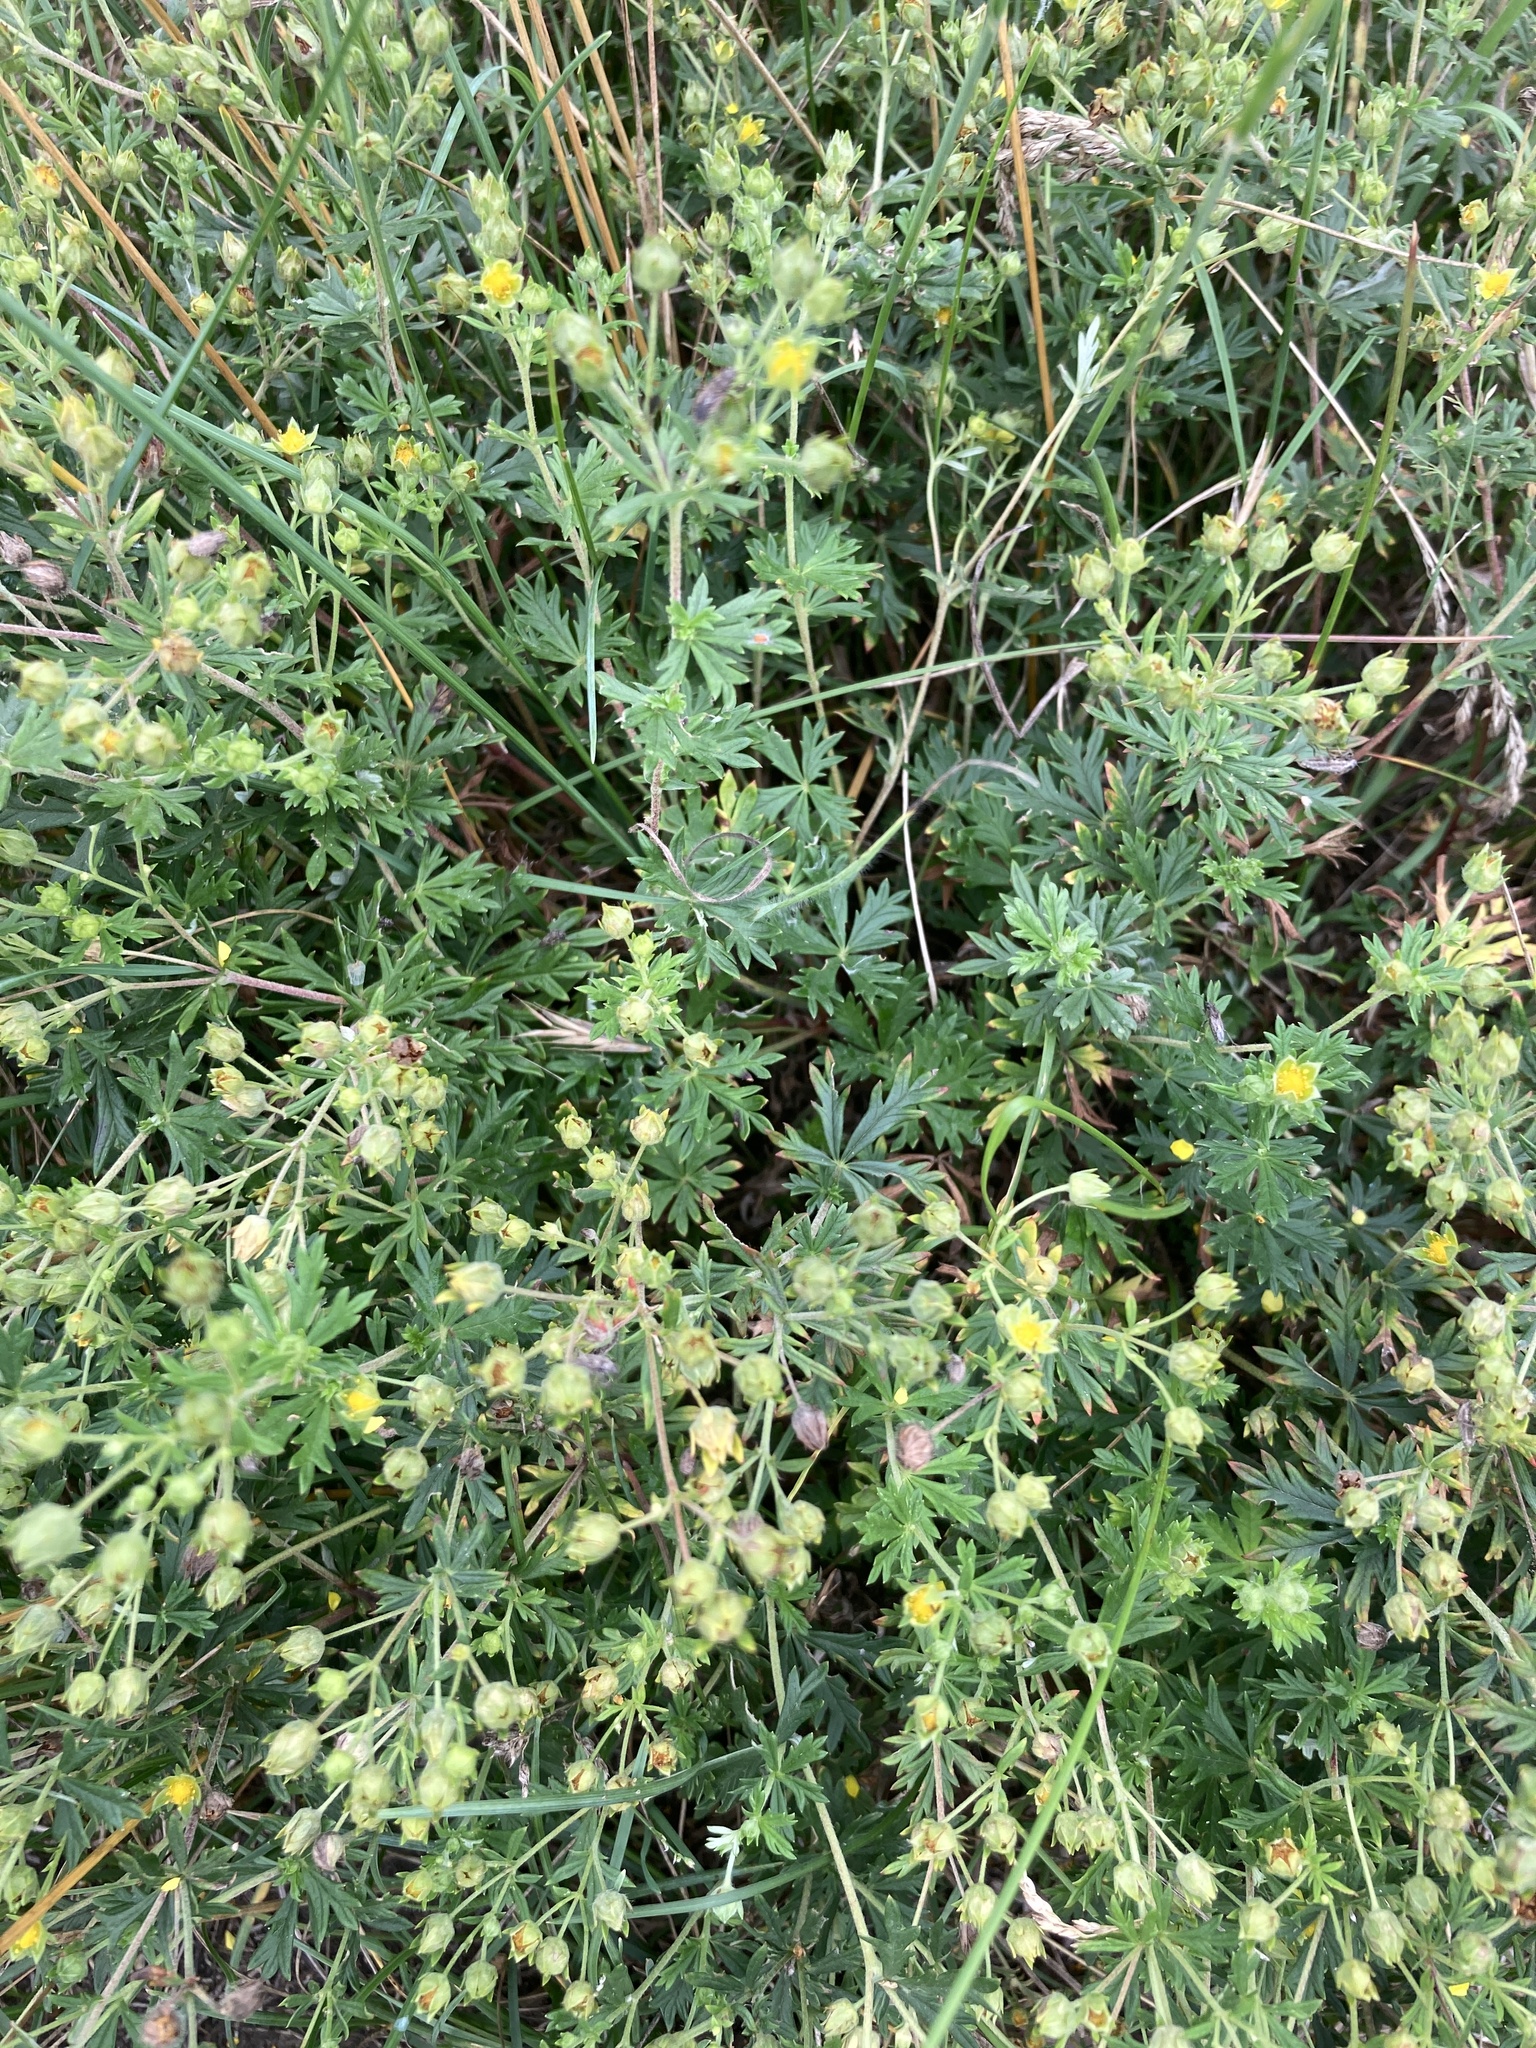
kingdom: Plantae
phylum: Tracheophyta
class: Magnoliopsida
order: Rosales
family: Rosaceae
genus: Potentilla
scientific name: Potentilla argentea
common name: Hoary cinquefoil
